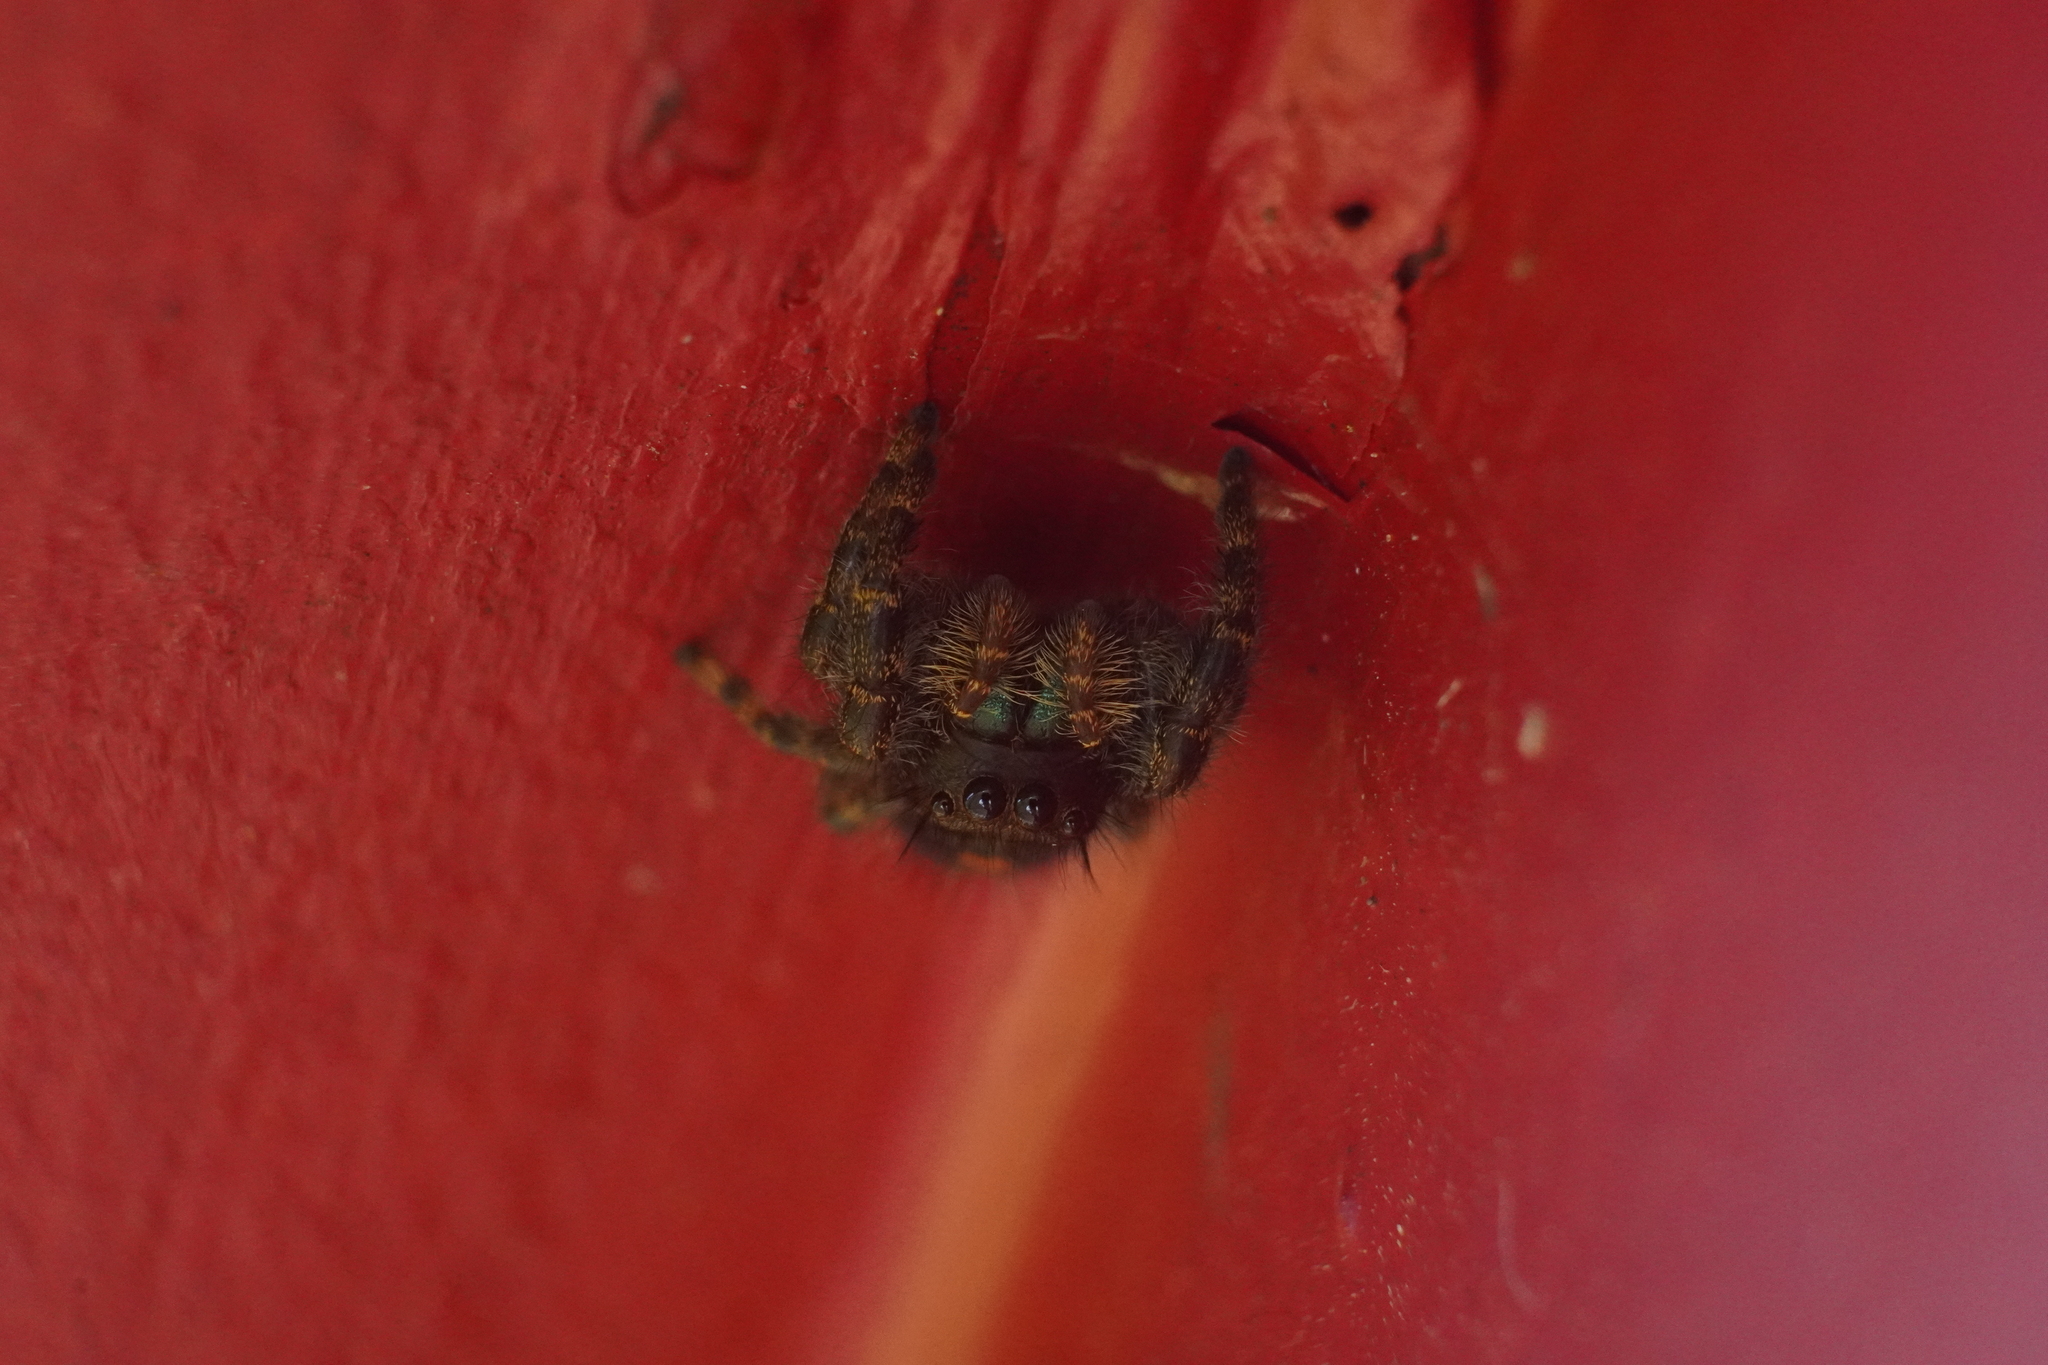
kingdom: Animalia
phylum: Arthropoda
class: Arachnida
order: Araneae
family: Salticidae
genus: Phidippus
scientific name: Phidippus audax
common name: Bold jumper
